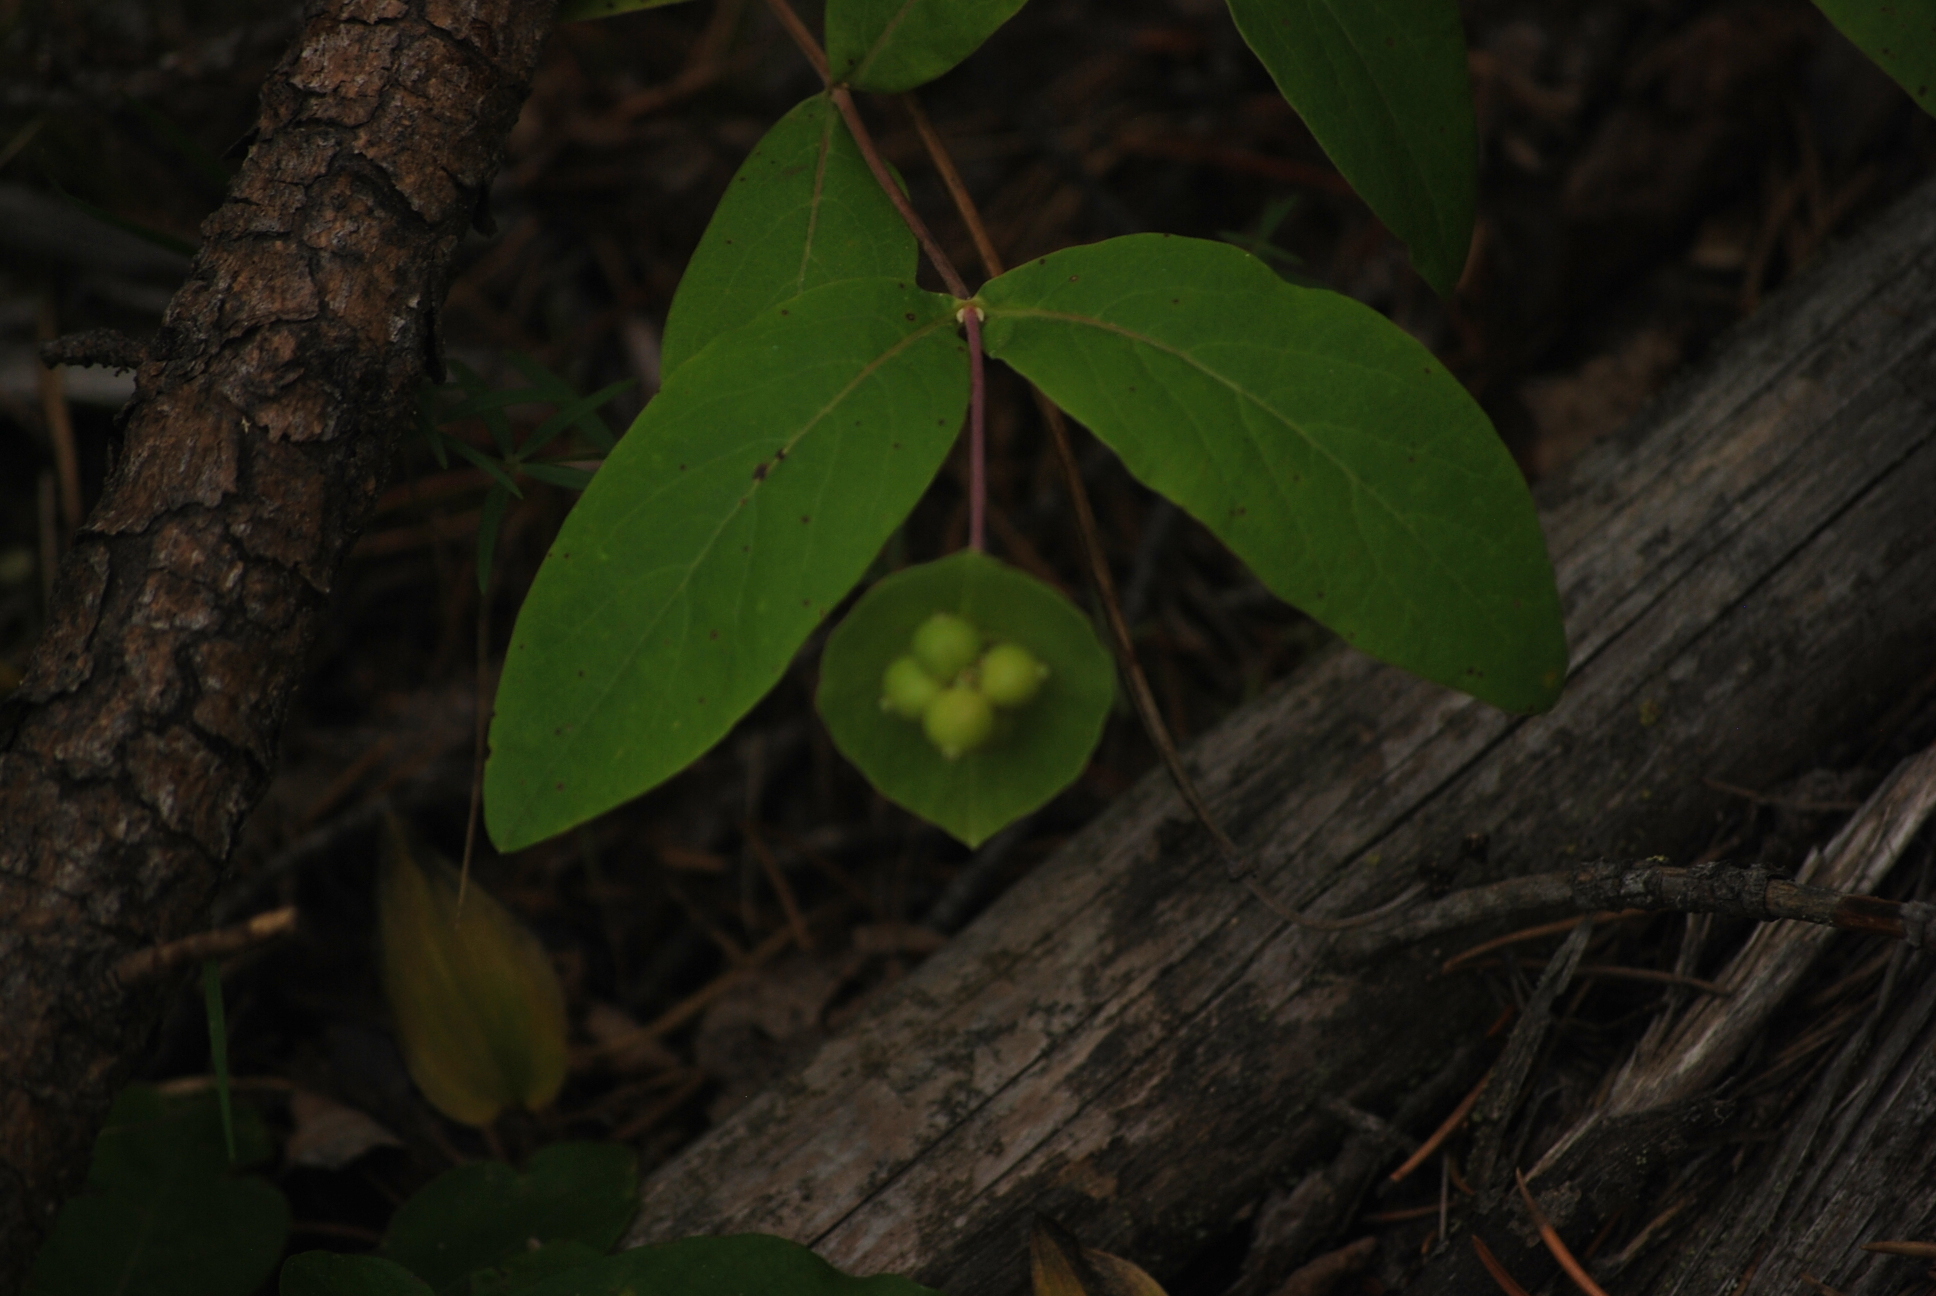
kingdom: Plantae
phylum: Tracheophyta
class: Magnoliopsida
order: Dipsacales
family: Caprifoliaceae
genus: Lonicera
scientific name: Lonicera dioica
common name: Limber honeysuckle
